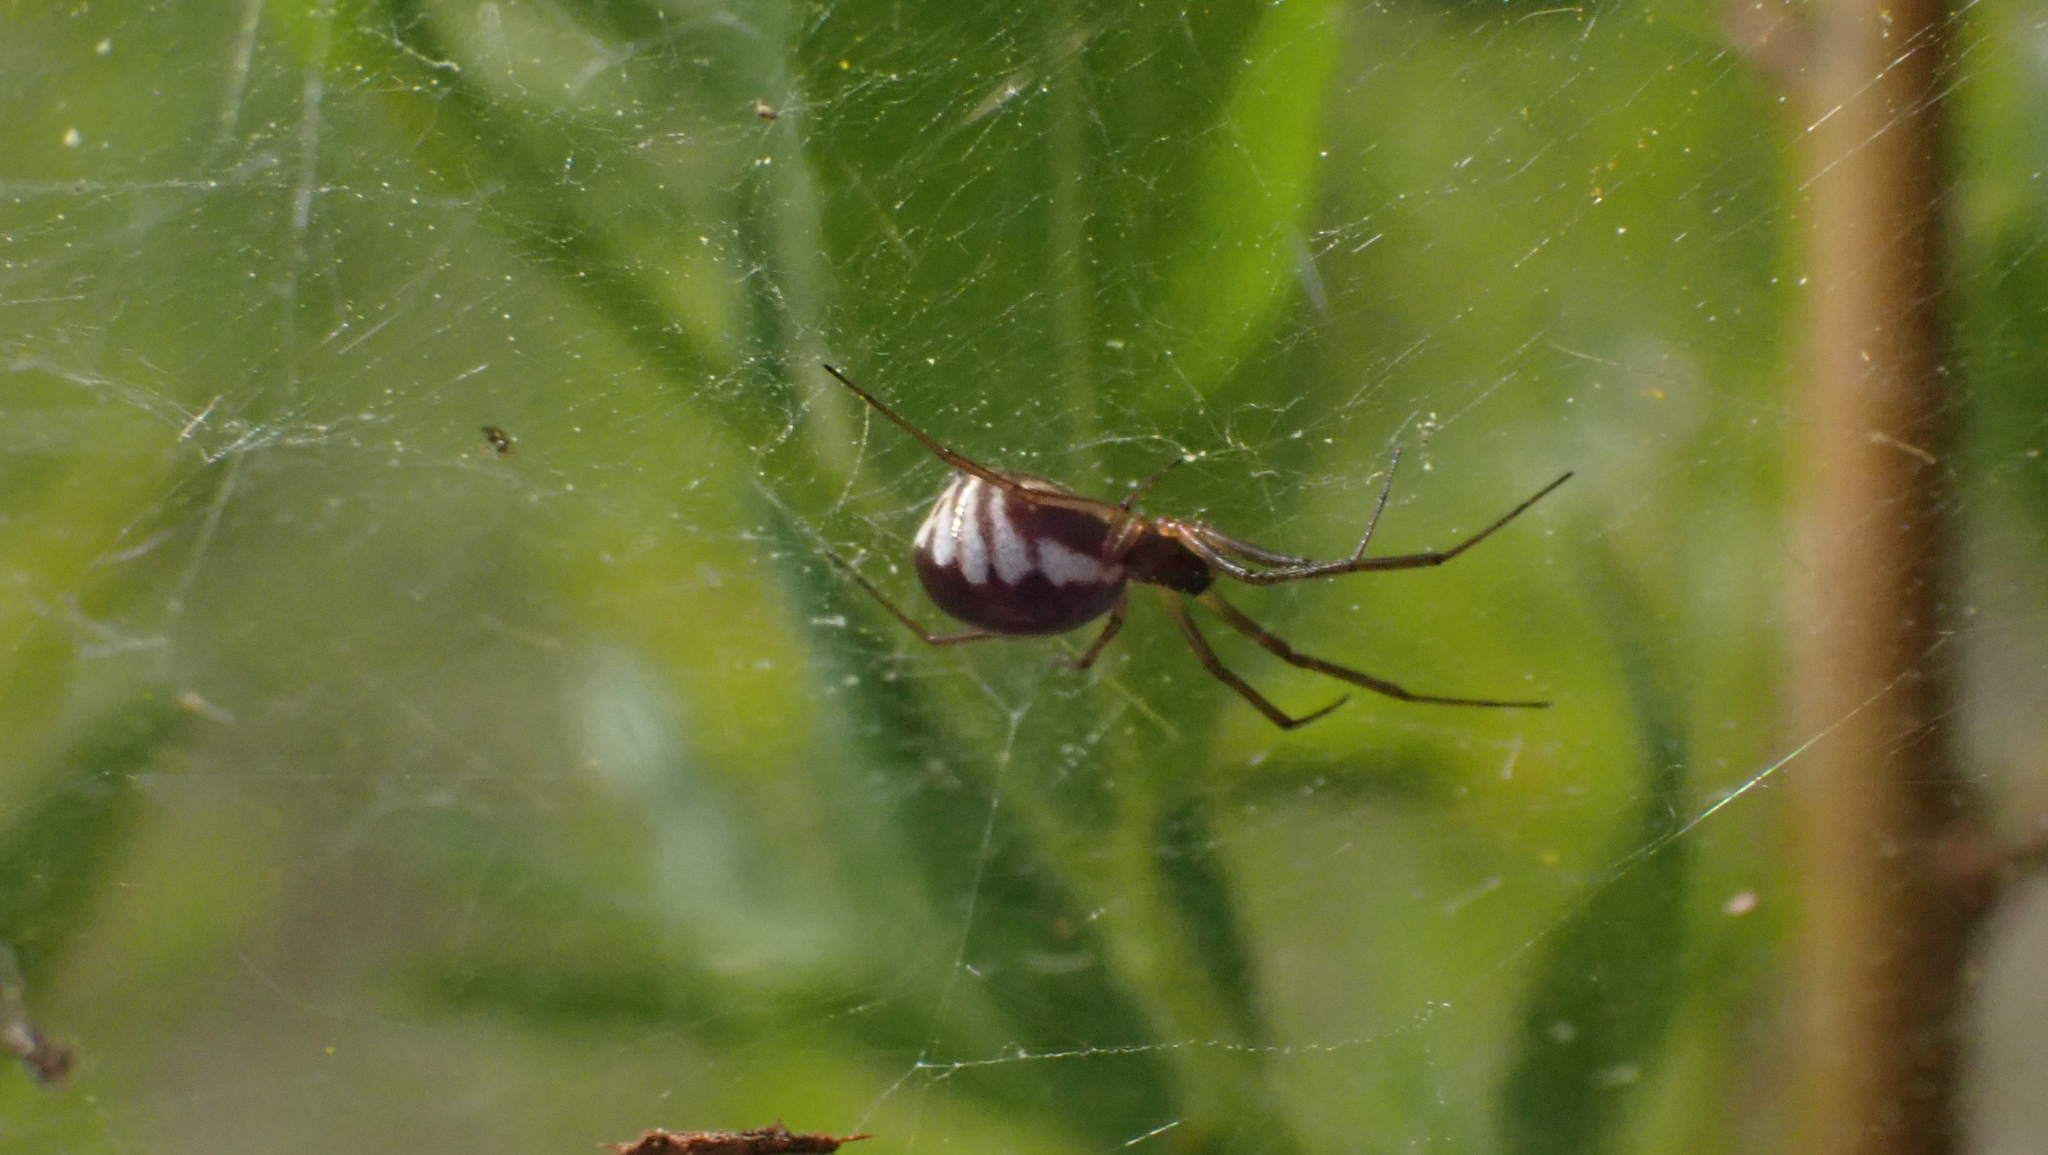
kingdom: Animalia
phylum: Arthropoda
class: Arachnida
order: Araneae
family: Linyphiidae
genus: Frontinella
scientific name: Frontinella pyramitela
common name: Bowl-and-doily spider
